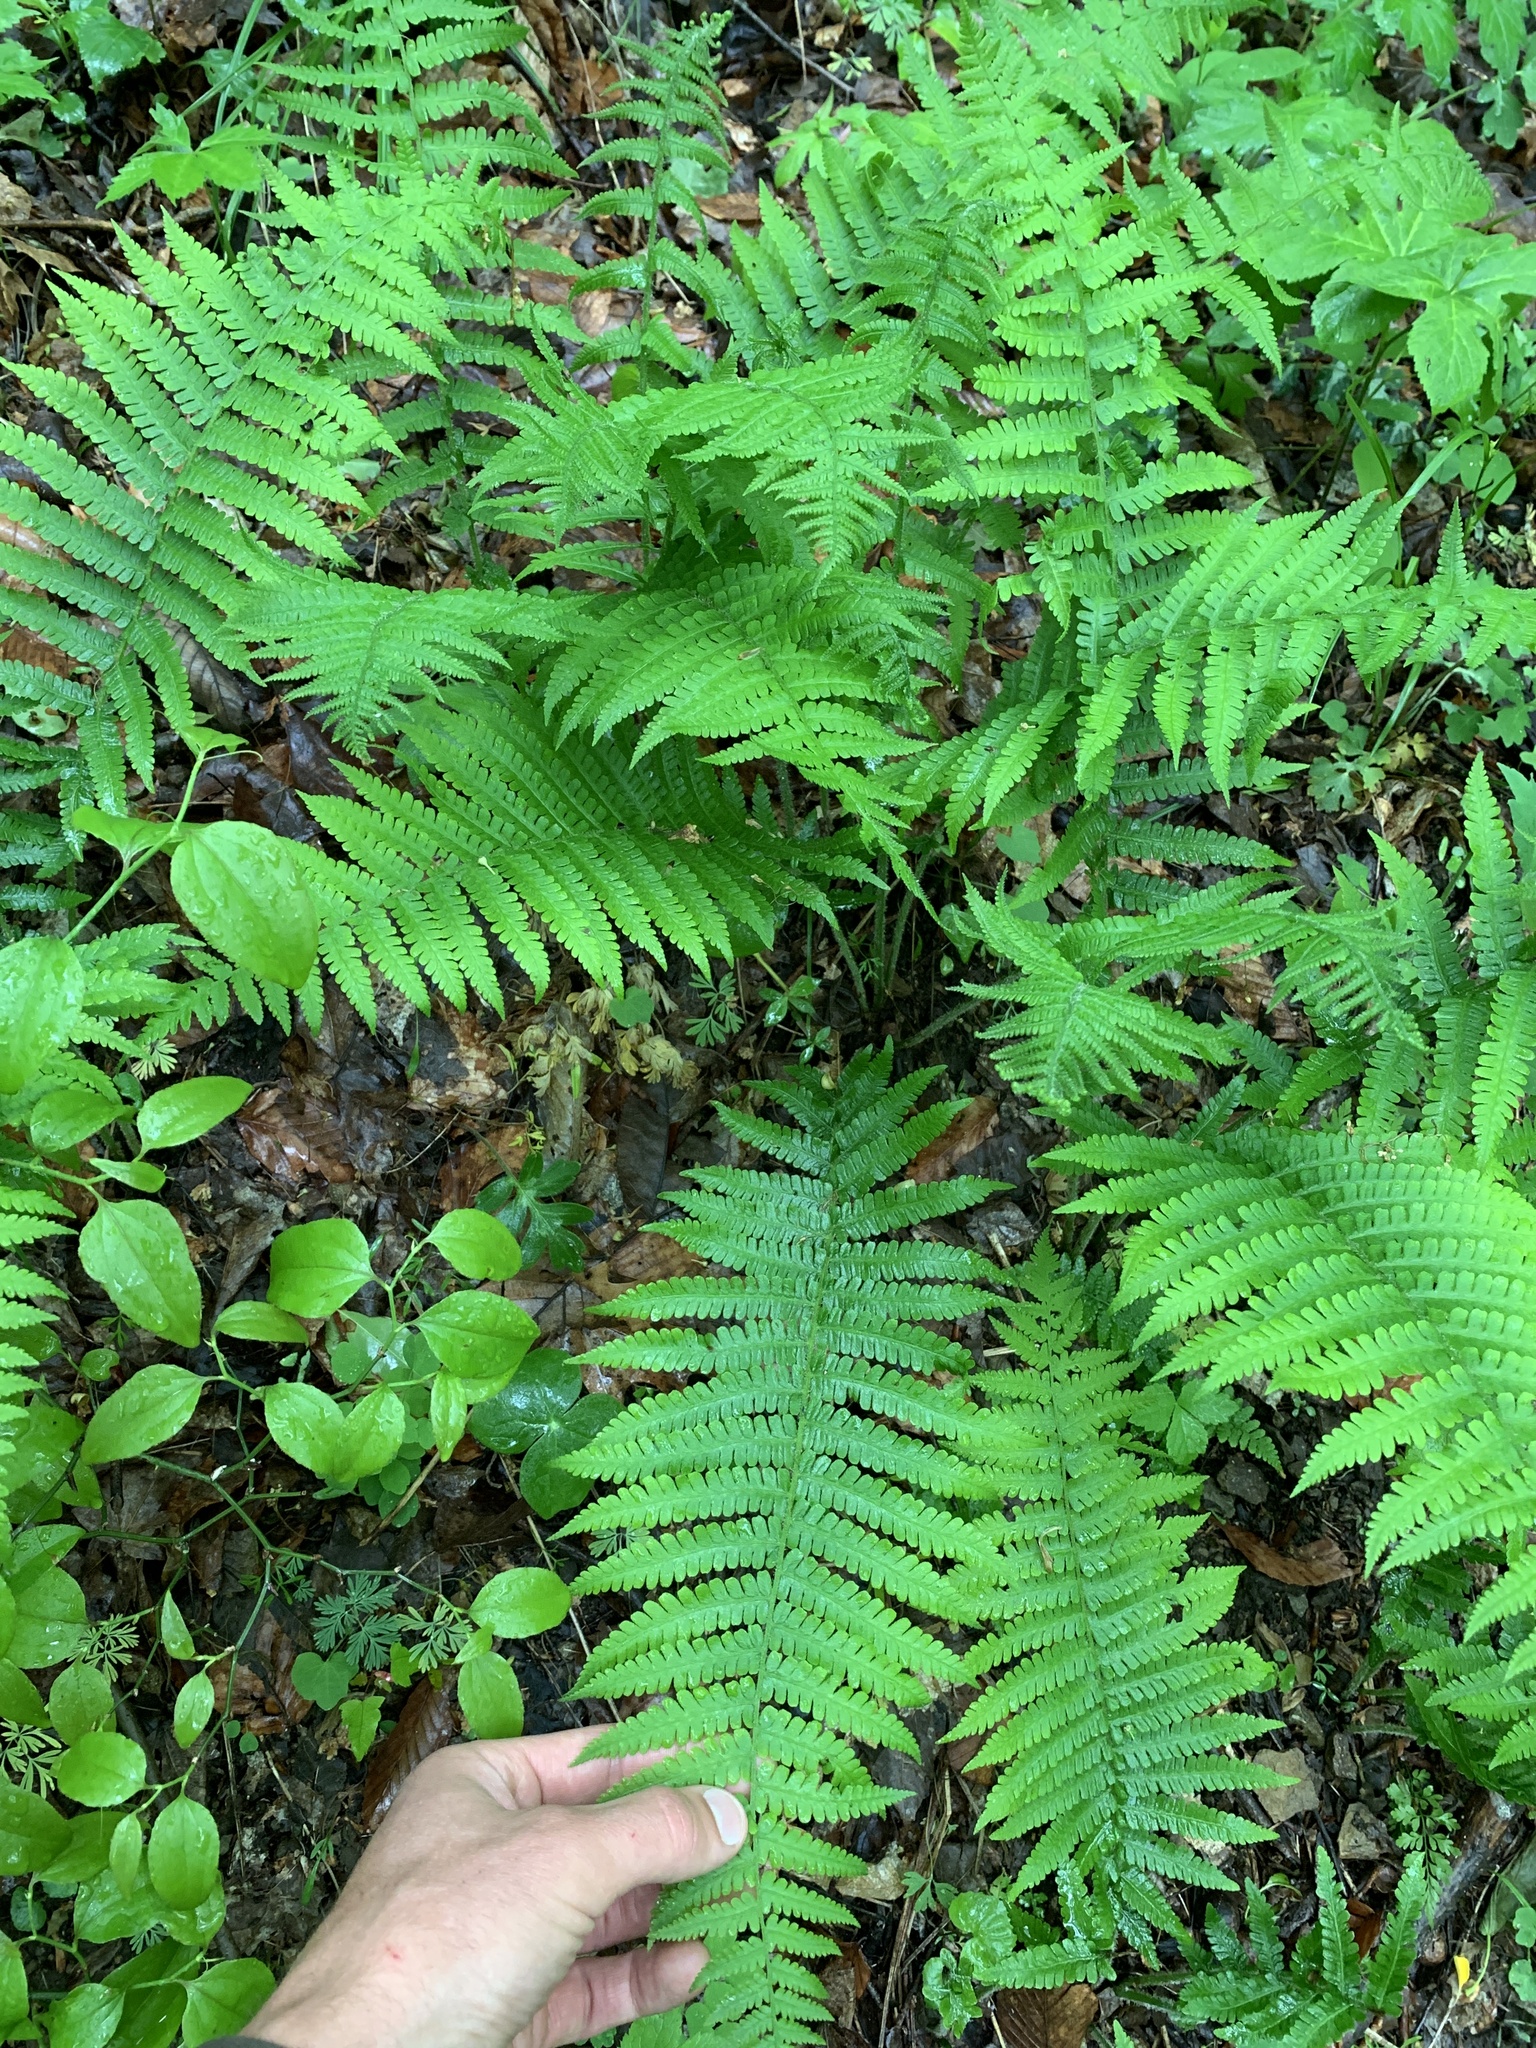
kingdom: Plantae
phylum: Tracheophyta
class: Polypodiopsida
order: Polypodiales
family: Athyriaceae
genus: Deparia
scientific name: Deparia acrostichoides
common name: Silver false spleenwort
